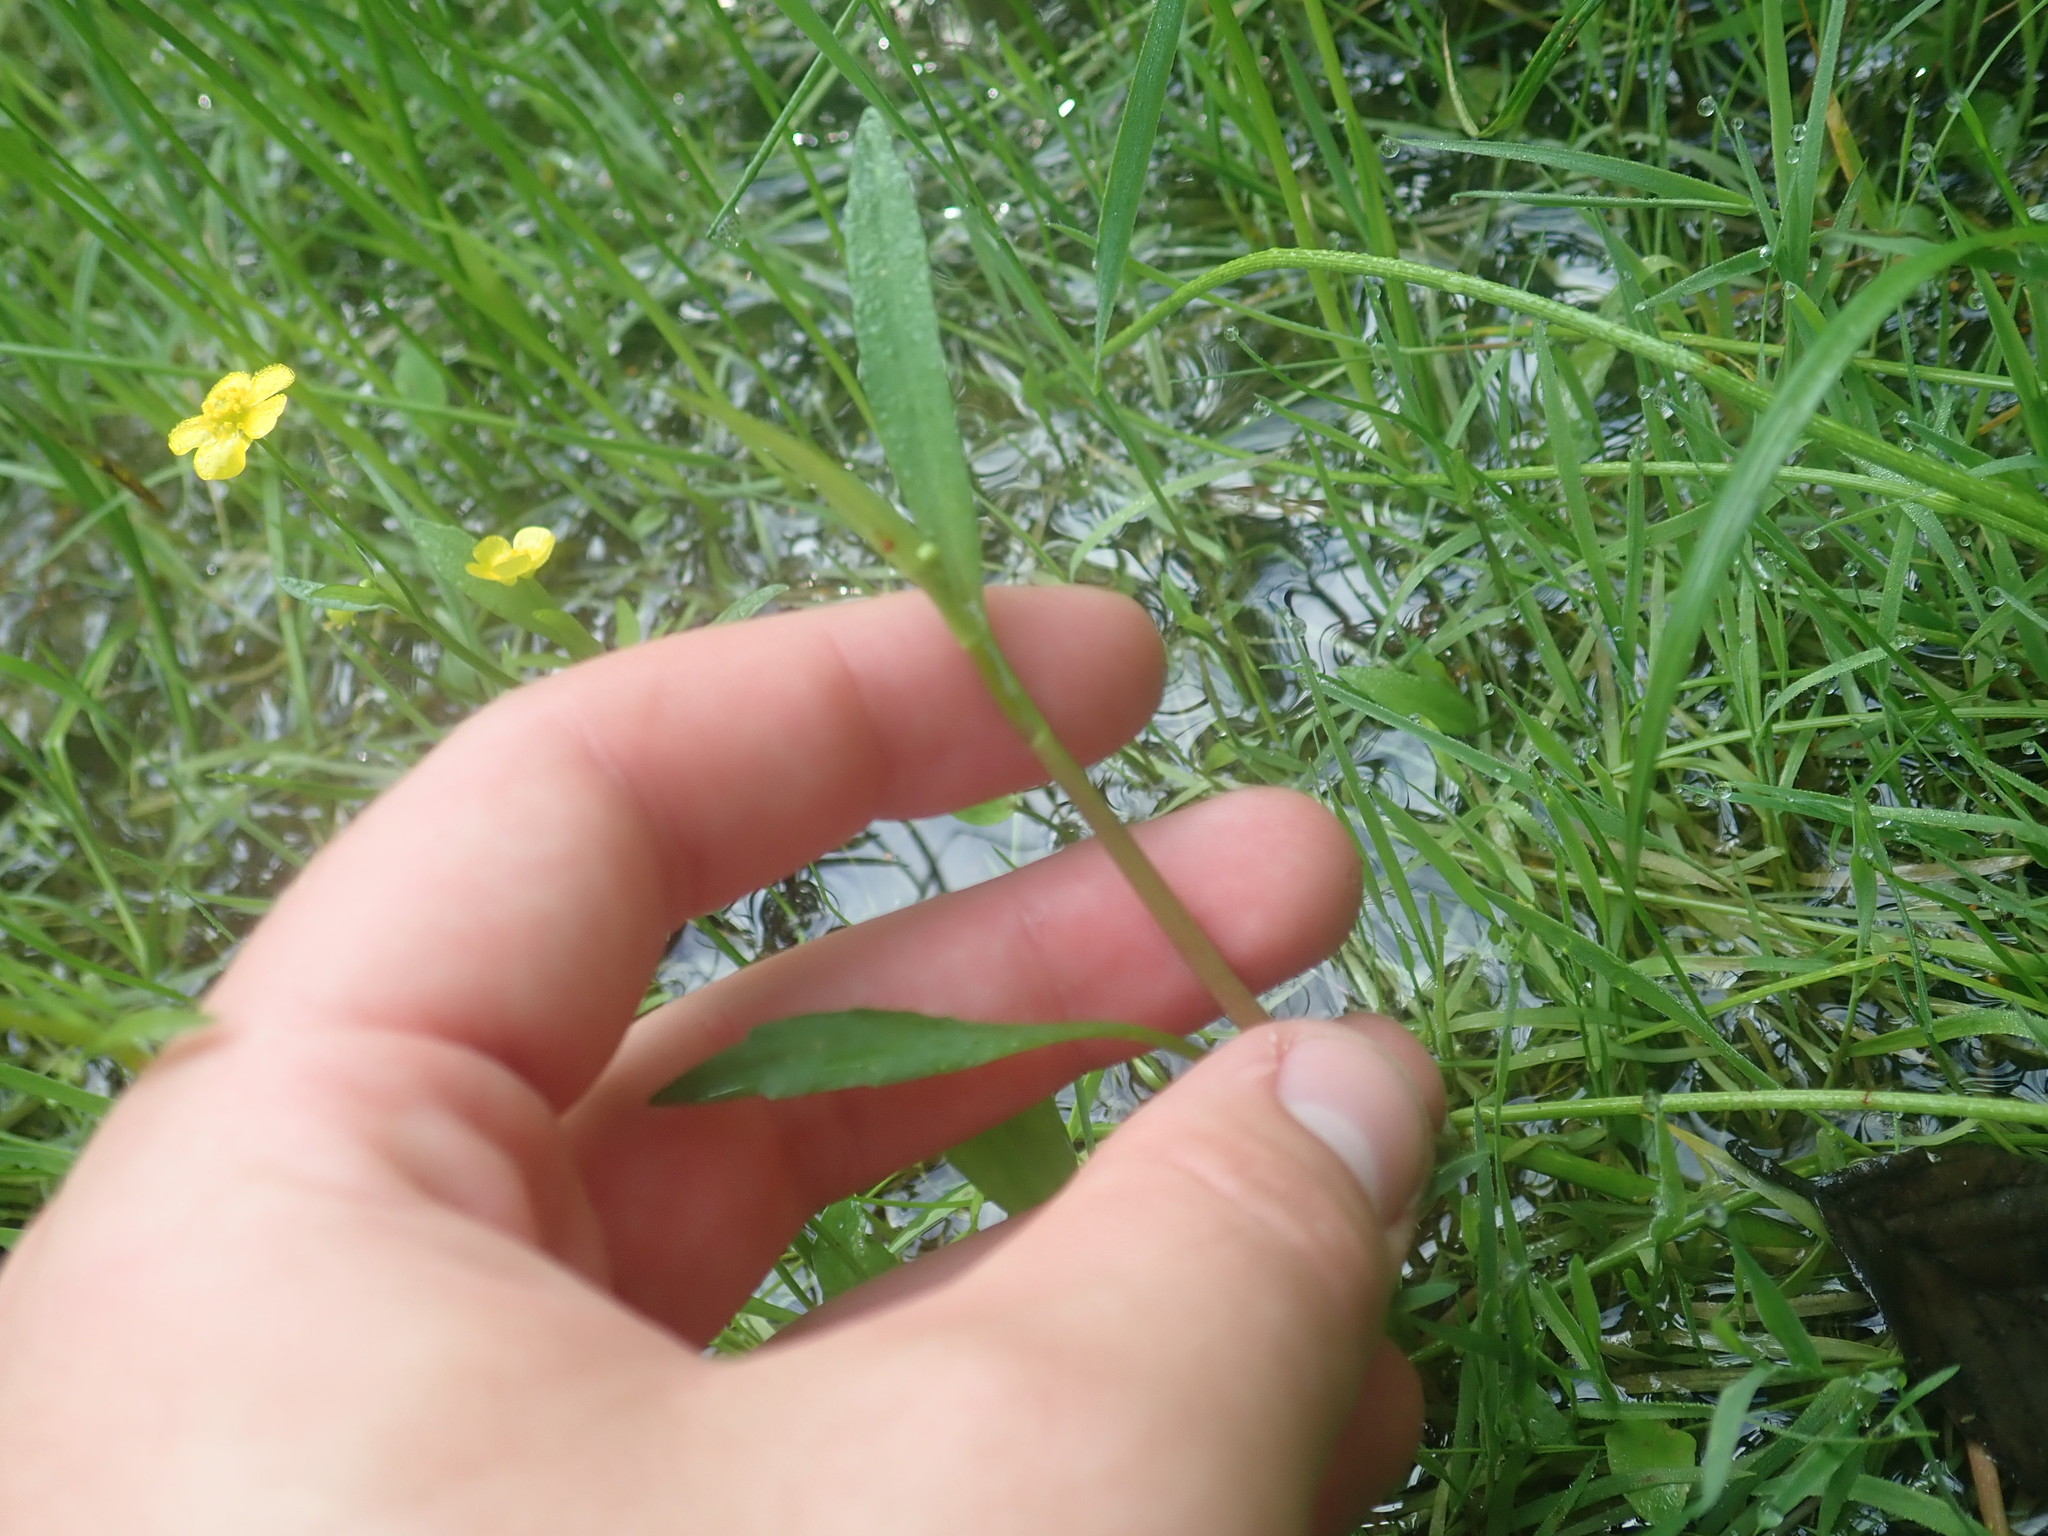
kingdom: Plantae
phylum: Tracheophyta
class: Magnoliopsida
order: Ranunculales
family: Ranunculaceae
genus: Ranunculus
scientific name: Ranunculus flammula
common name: Lesser spearwort
